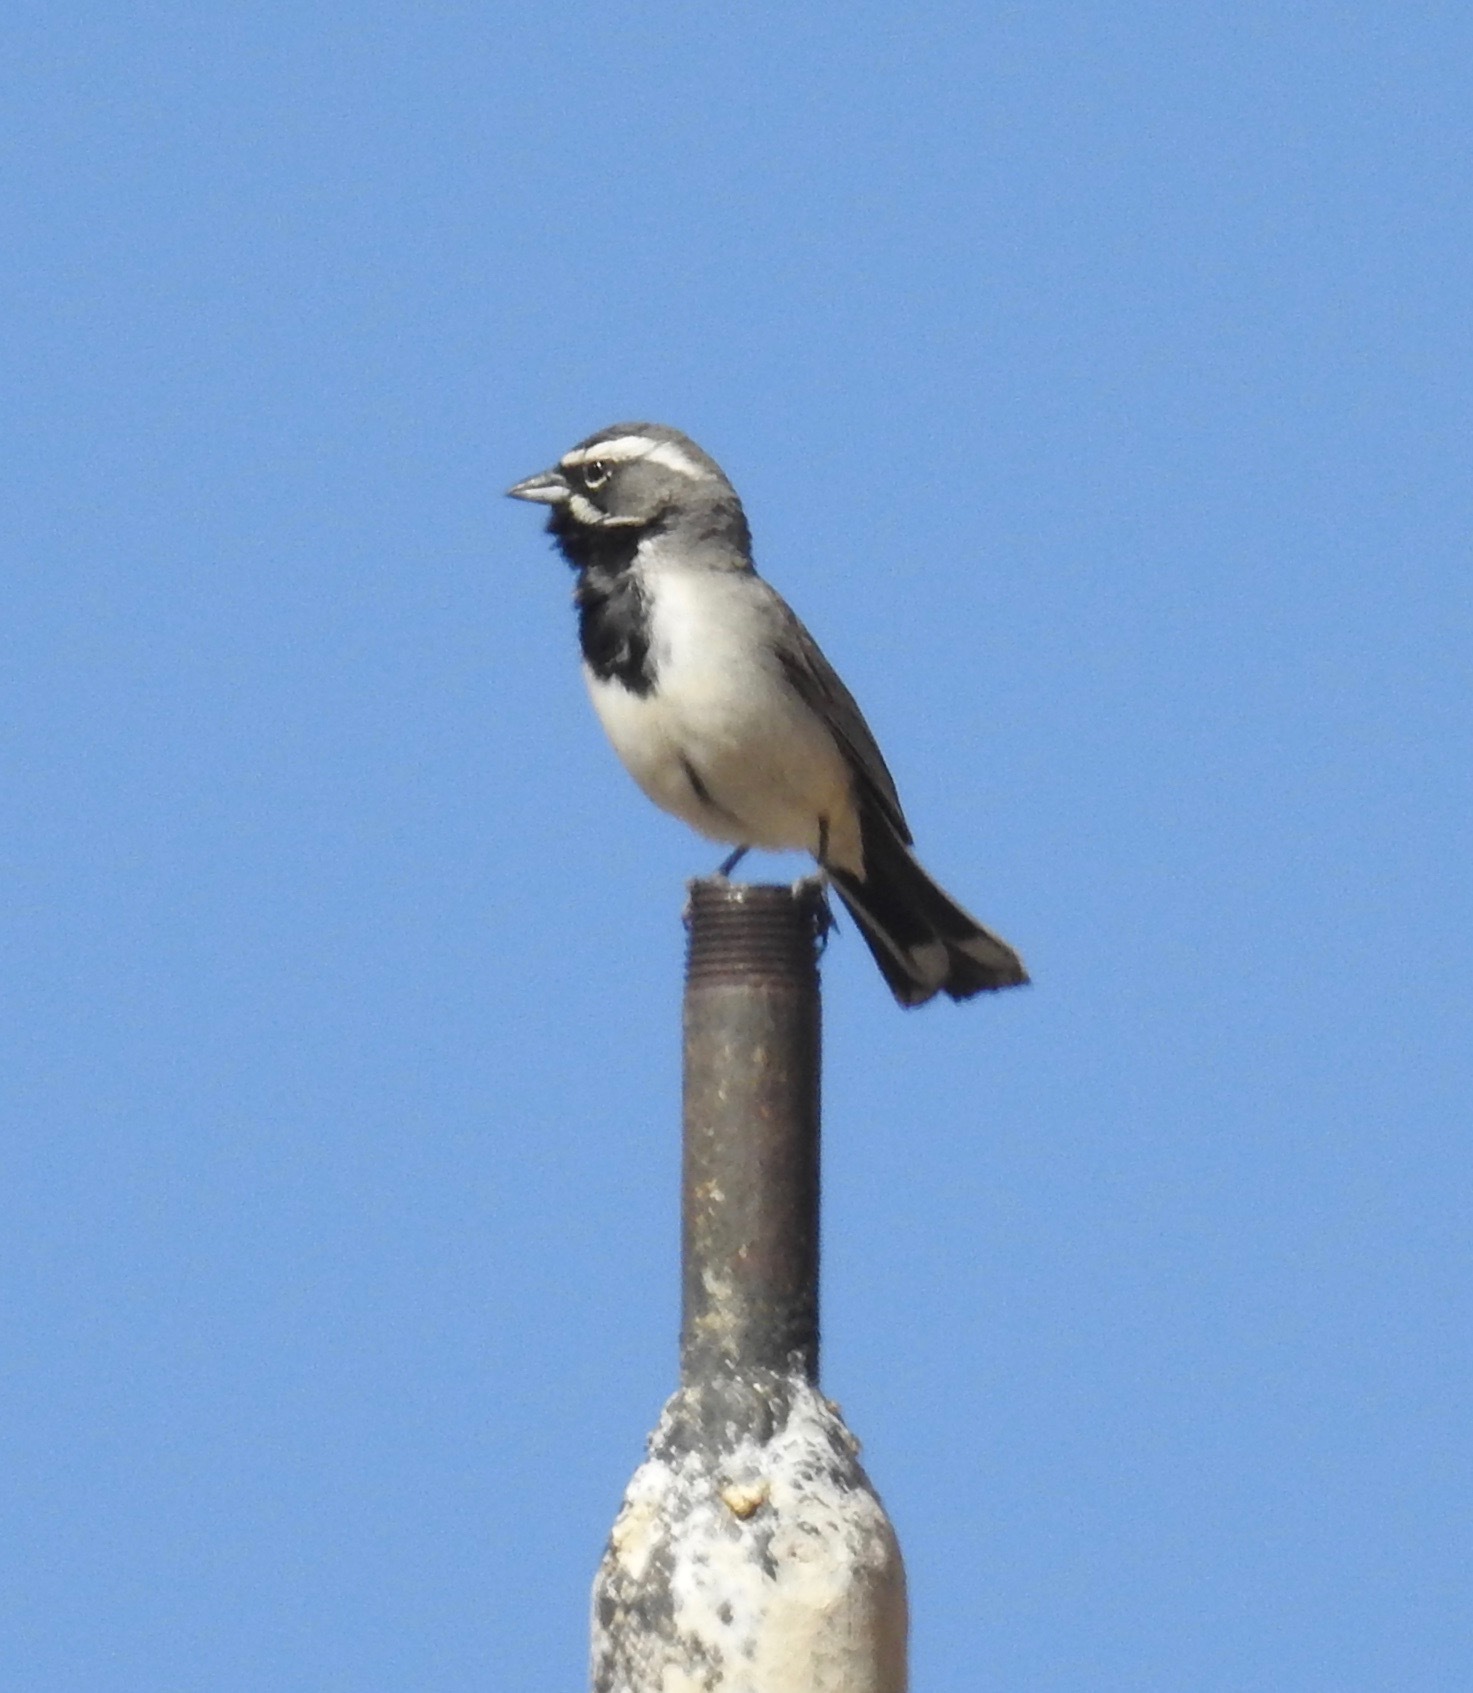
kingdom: Animalia
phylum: Chordata
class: Aves
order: Passeriformes
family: Passerellidae
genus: Amphispiza
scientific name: Amphispiza bilineata
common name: Black-throated sparrow
